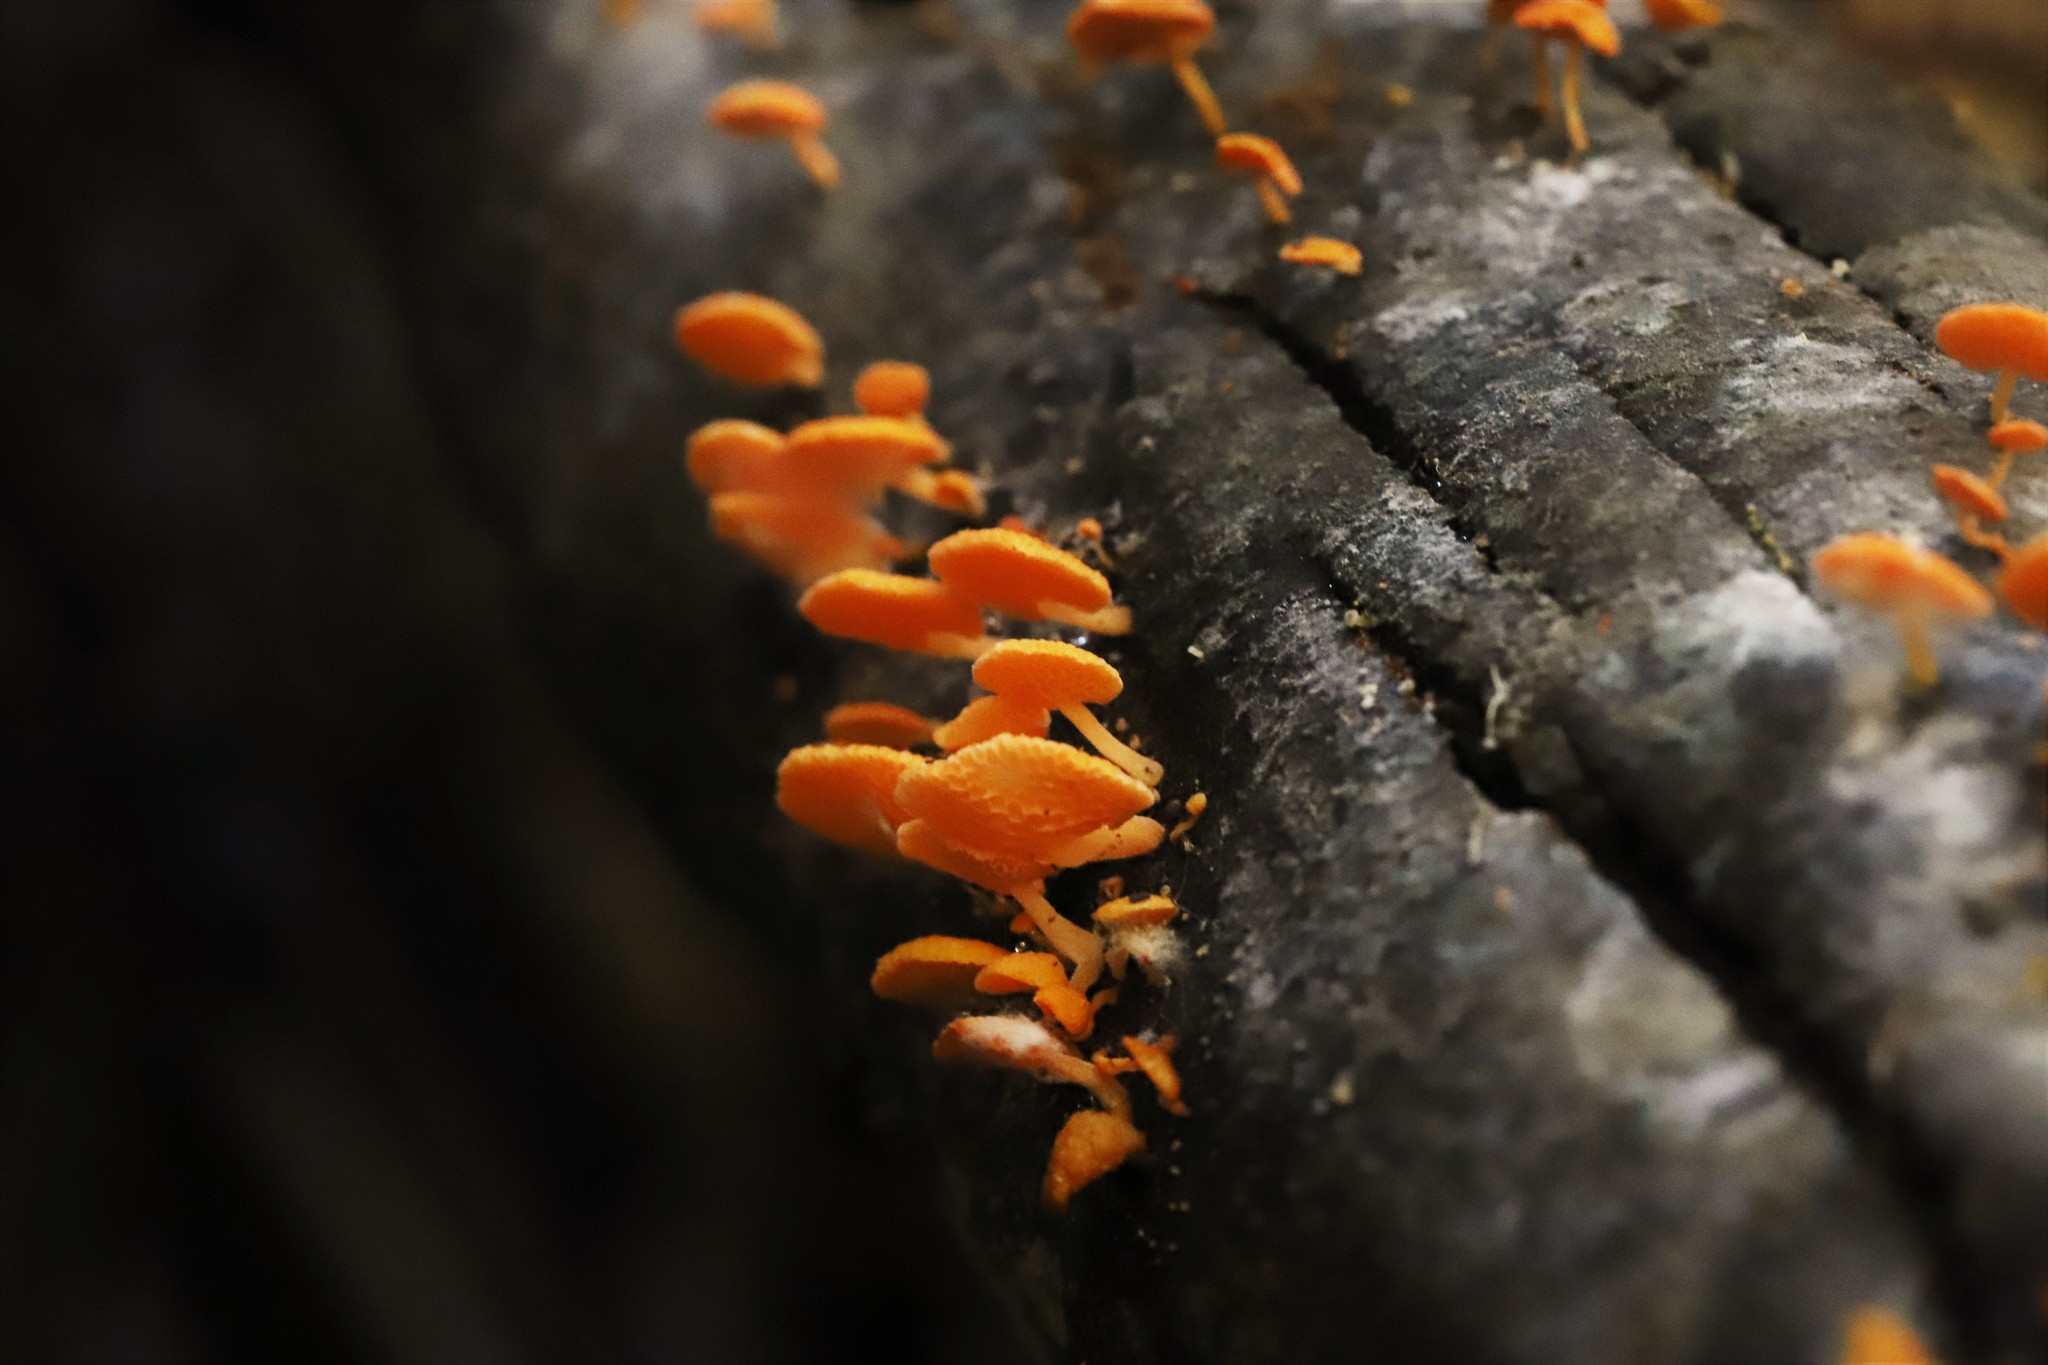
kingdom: Fungi
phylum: Basidiomycota
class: Agaricomycetes
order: Agaricales
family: Mycenaceae
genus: Favolaschia
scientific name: Favolaschia claudopus
